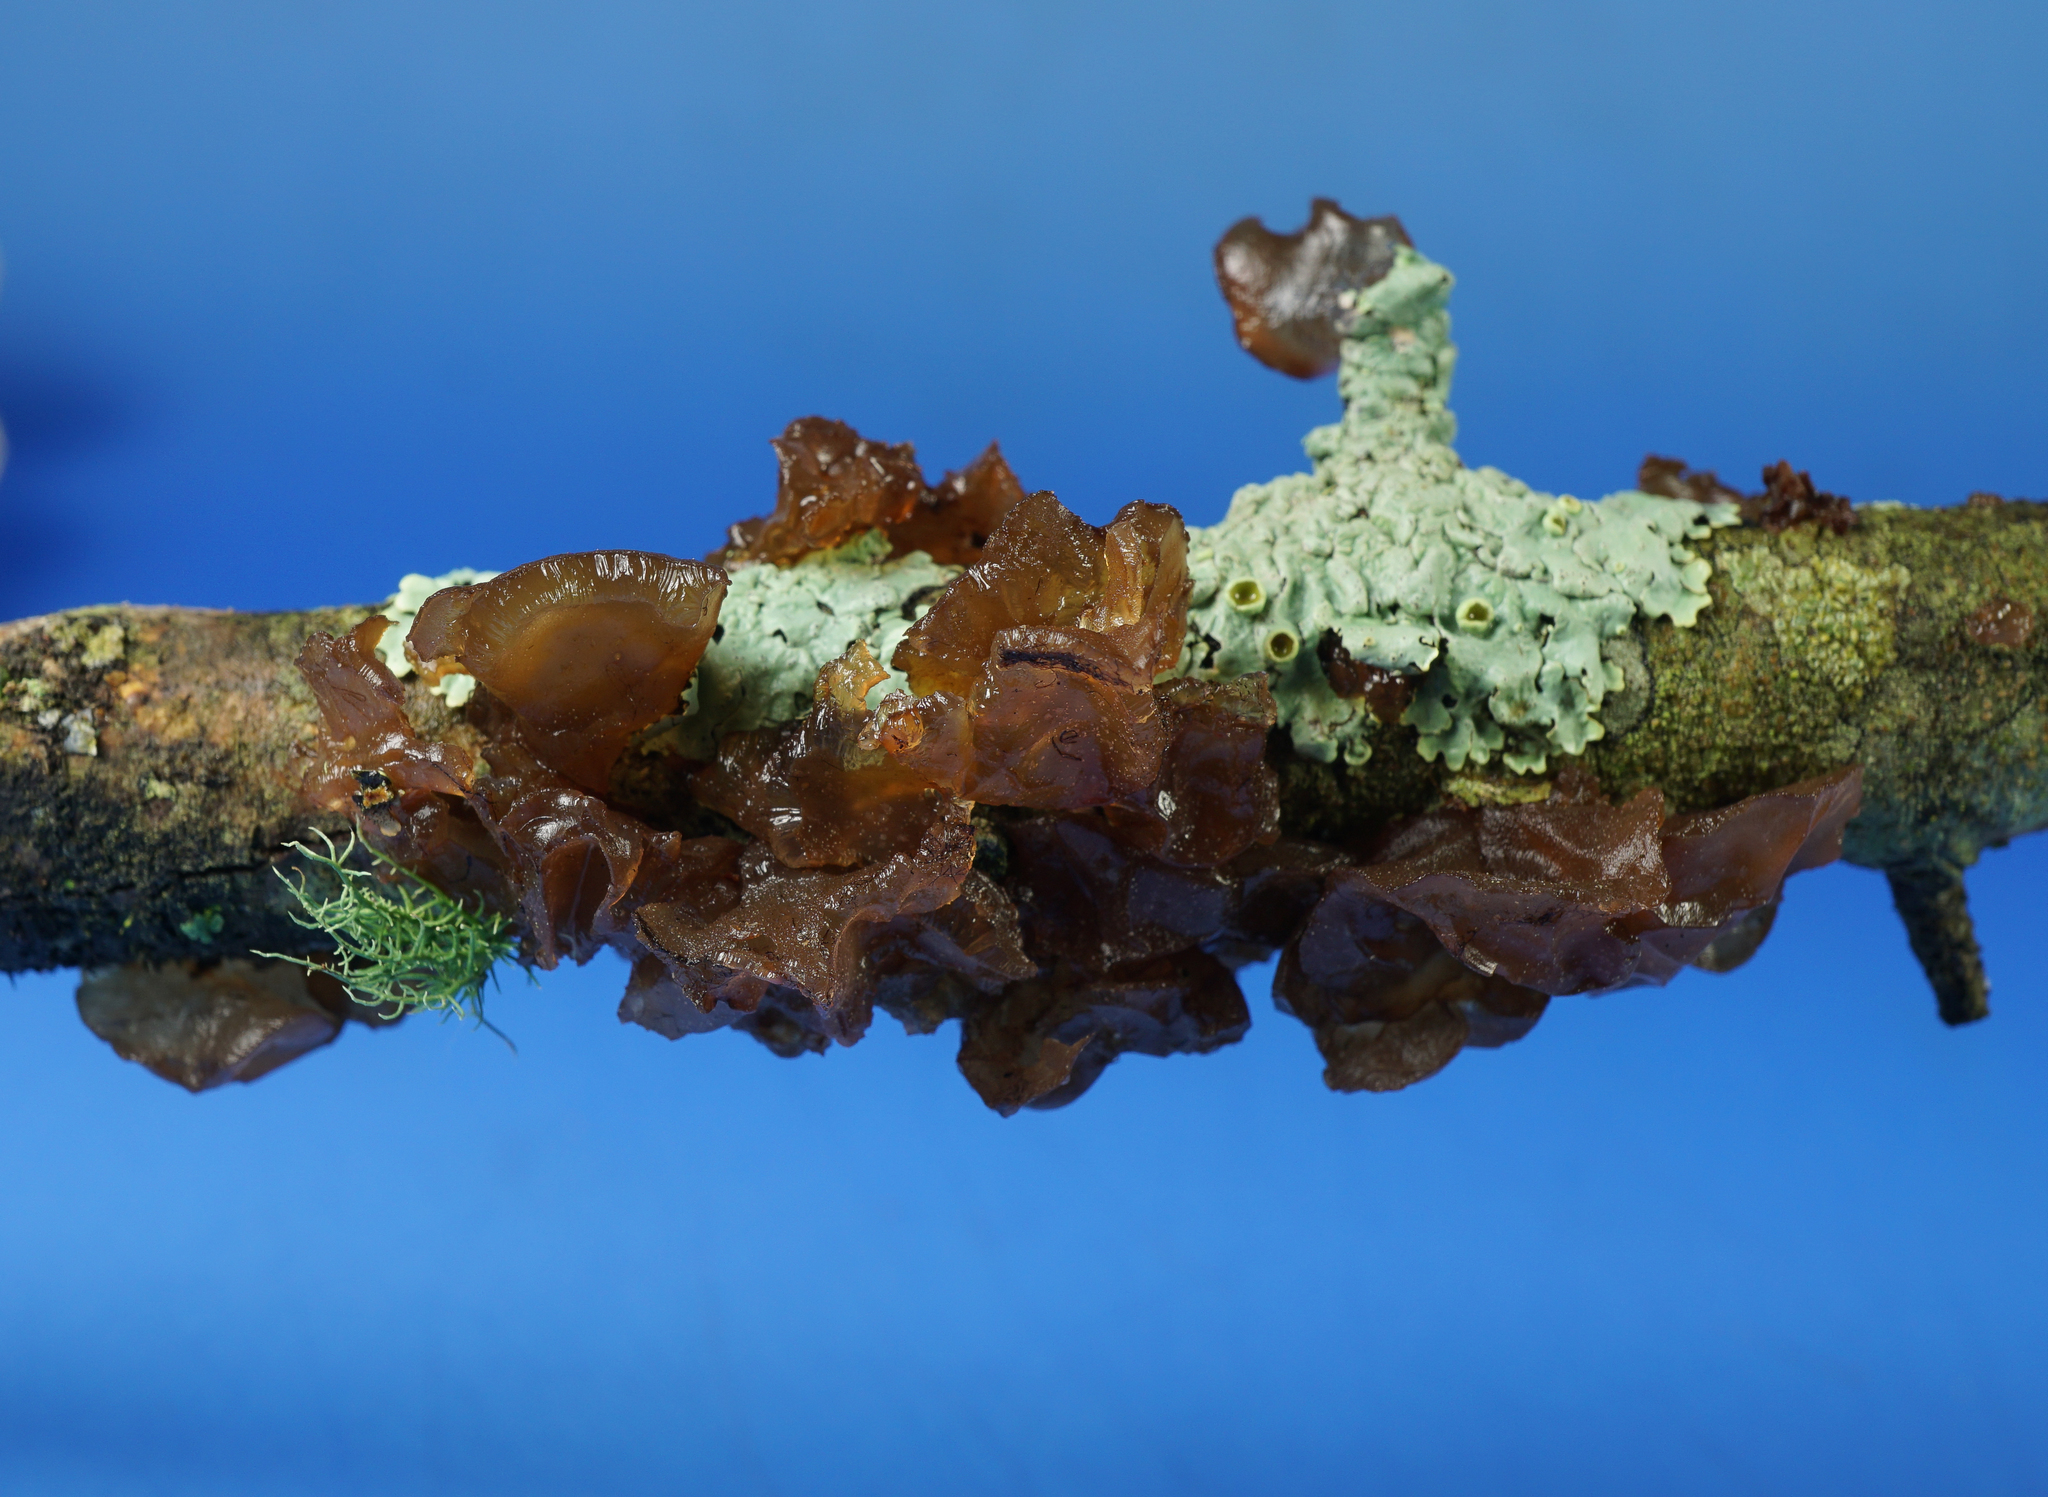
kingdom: Fungi
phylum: Basidiomycota
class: Agaricomycetes
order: Auriculariales
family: Auriculariaceae
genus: Exidia
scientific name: Exidia
